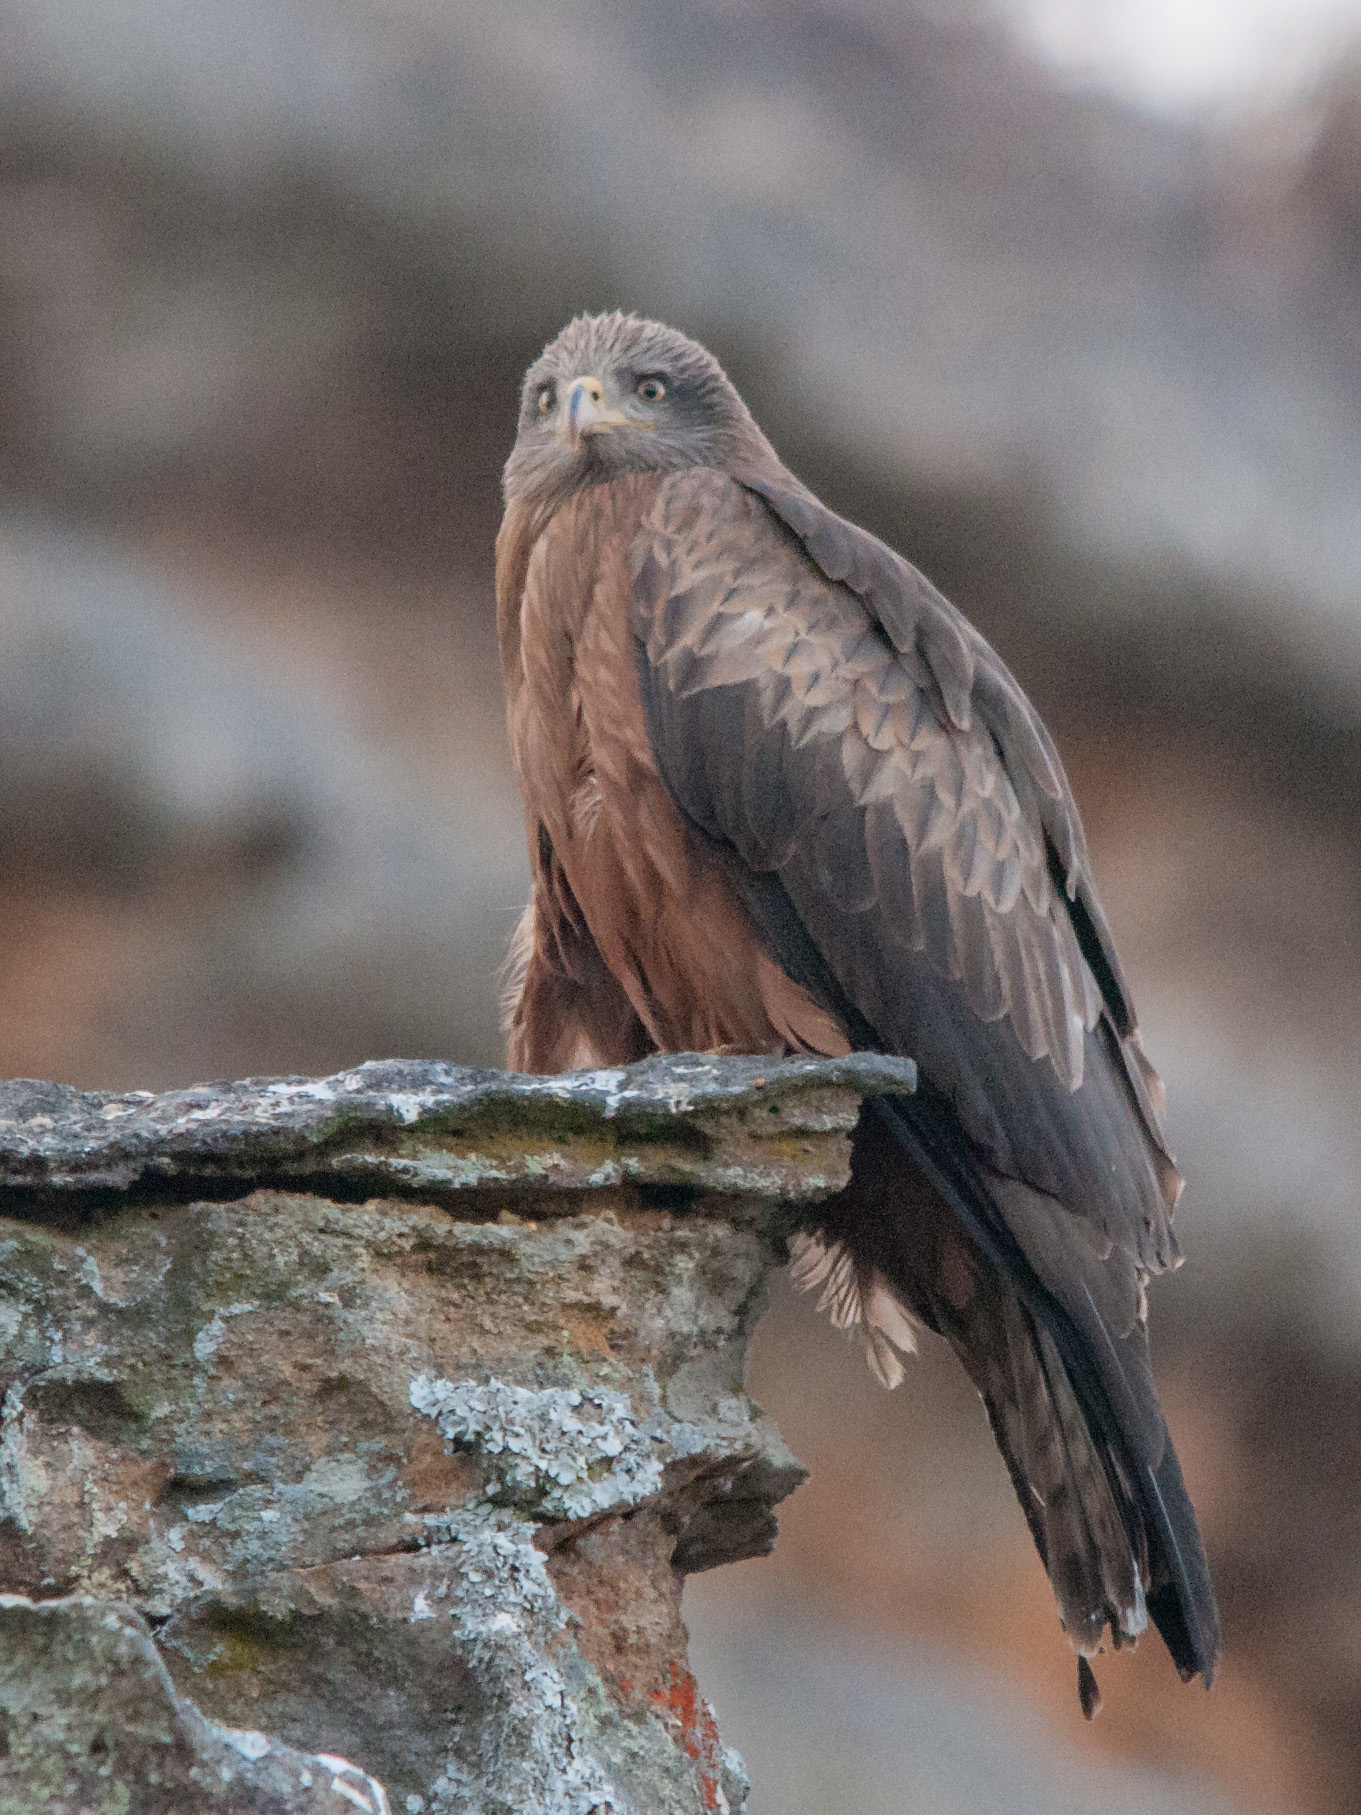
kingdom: Animalia
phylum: Chordata
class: Aves
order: Accipitriformes
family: Accipitridae
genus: Milvus
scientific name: Milvus migrans
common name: Black kite
